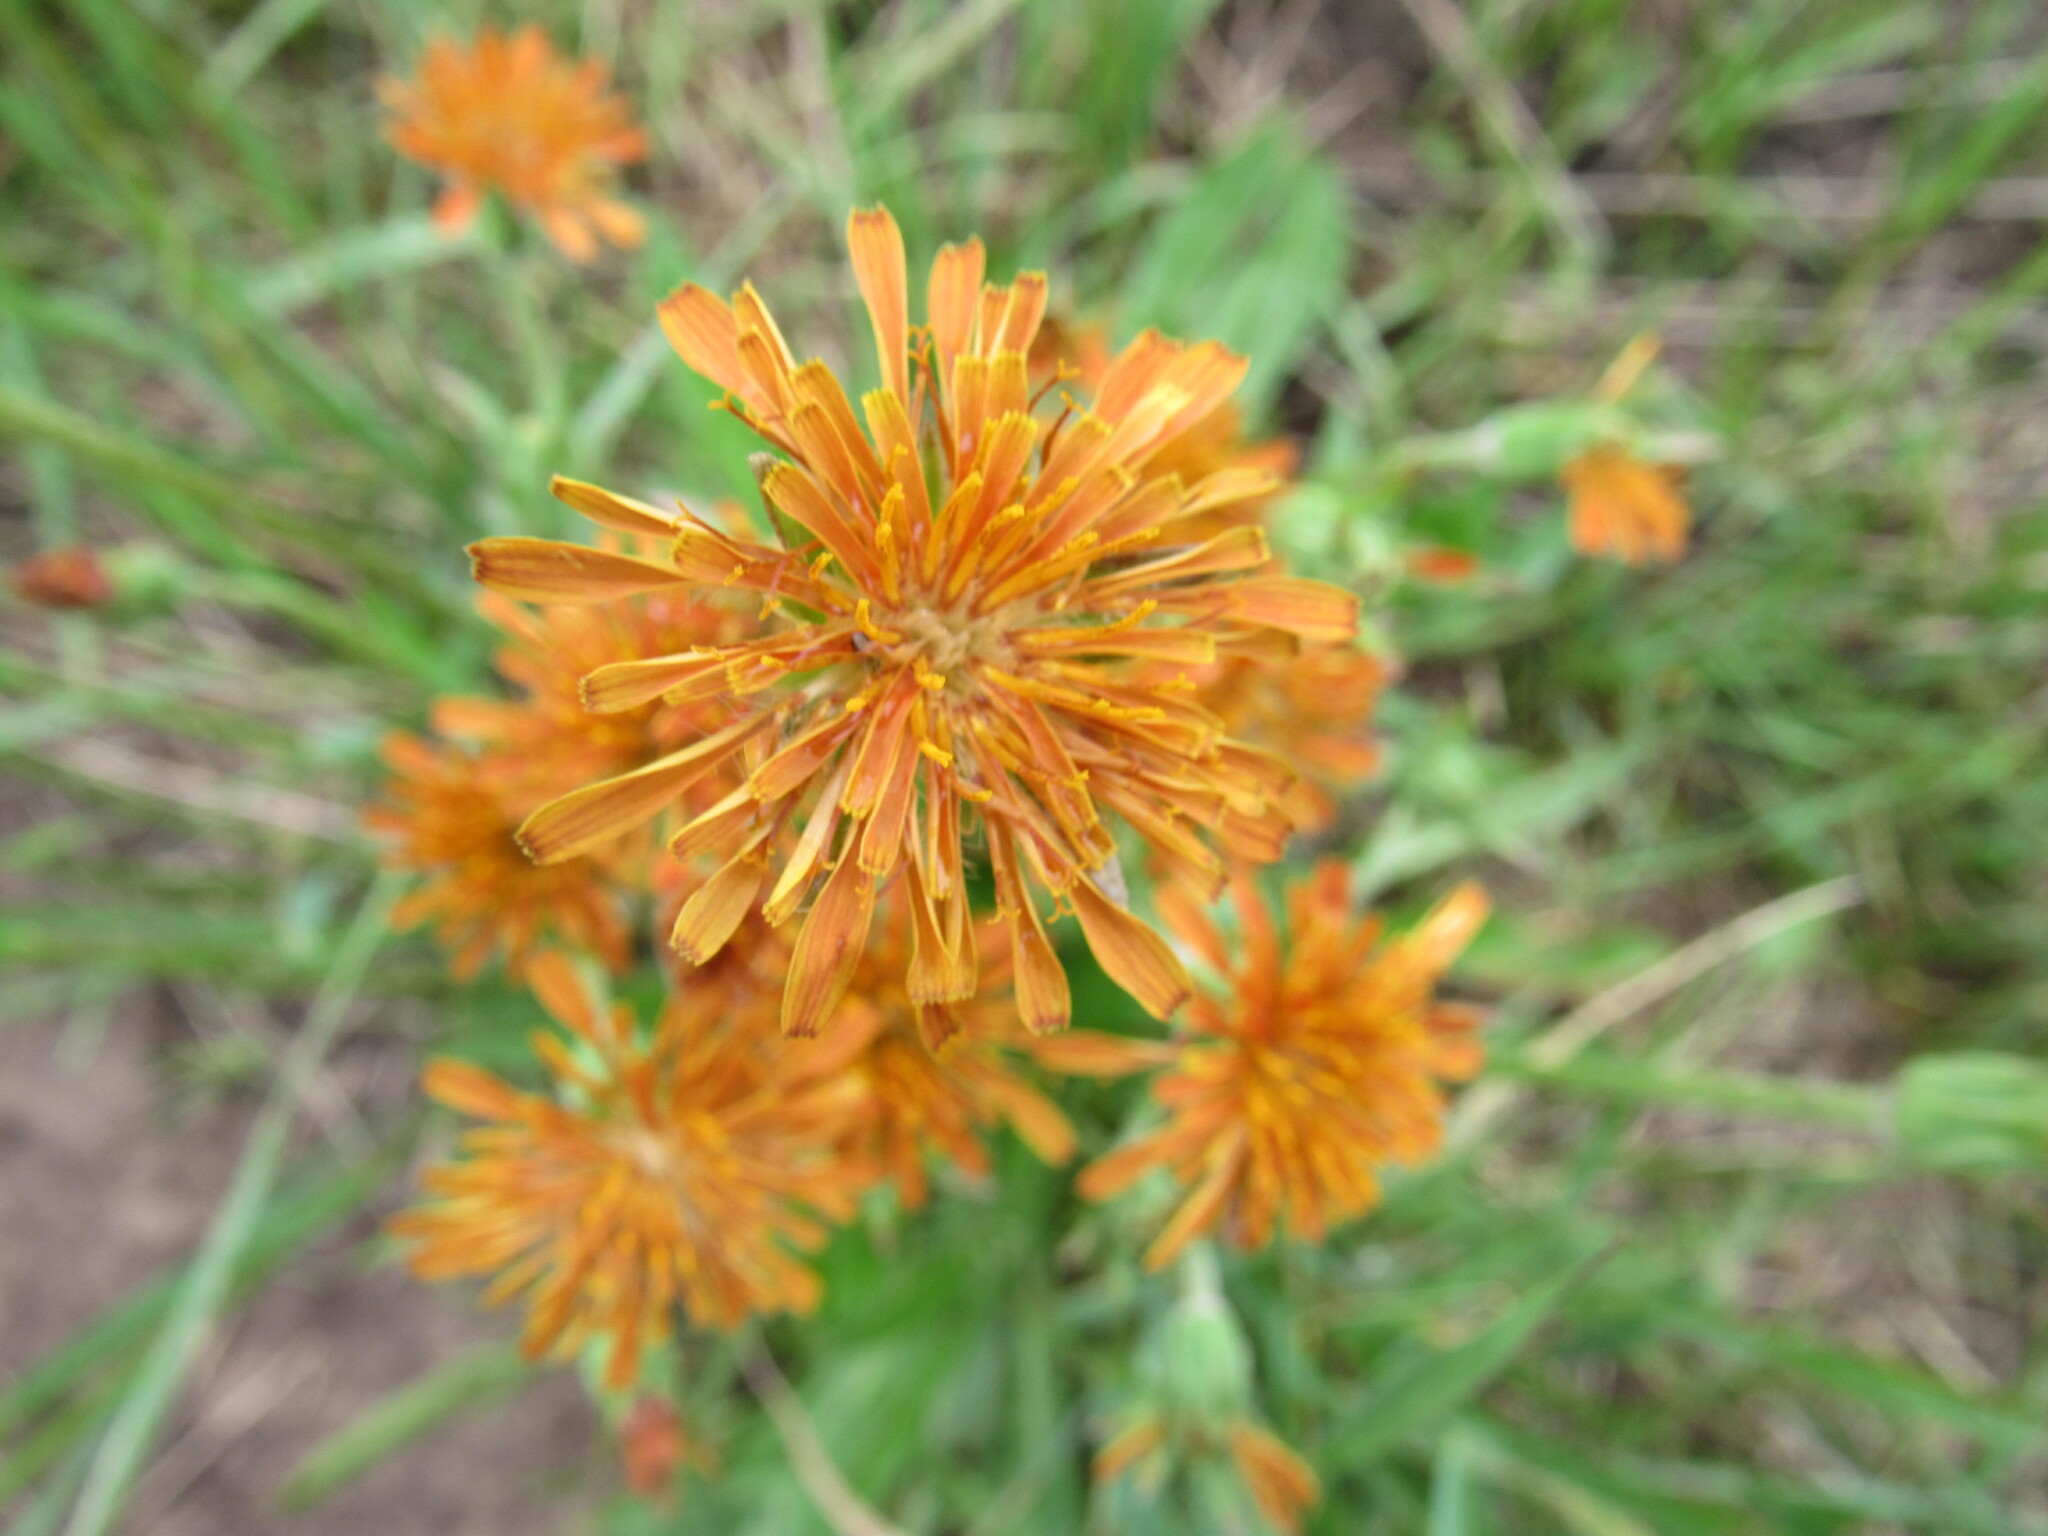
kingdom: Plantae
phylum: Tracheophyta
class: Magnoliopsida
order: Asterales
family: Asteraceae
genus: Agoseris
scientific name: Agoseris aurantiaca
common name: Mountain agoseris
